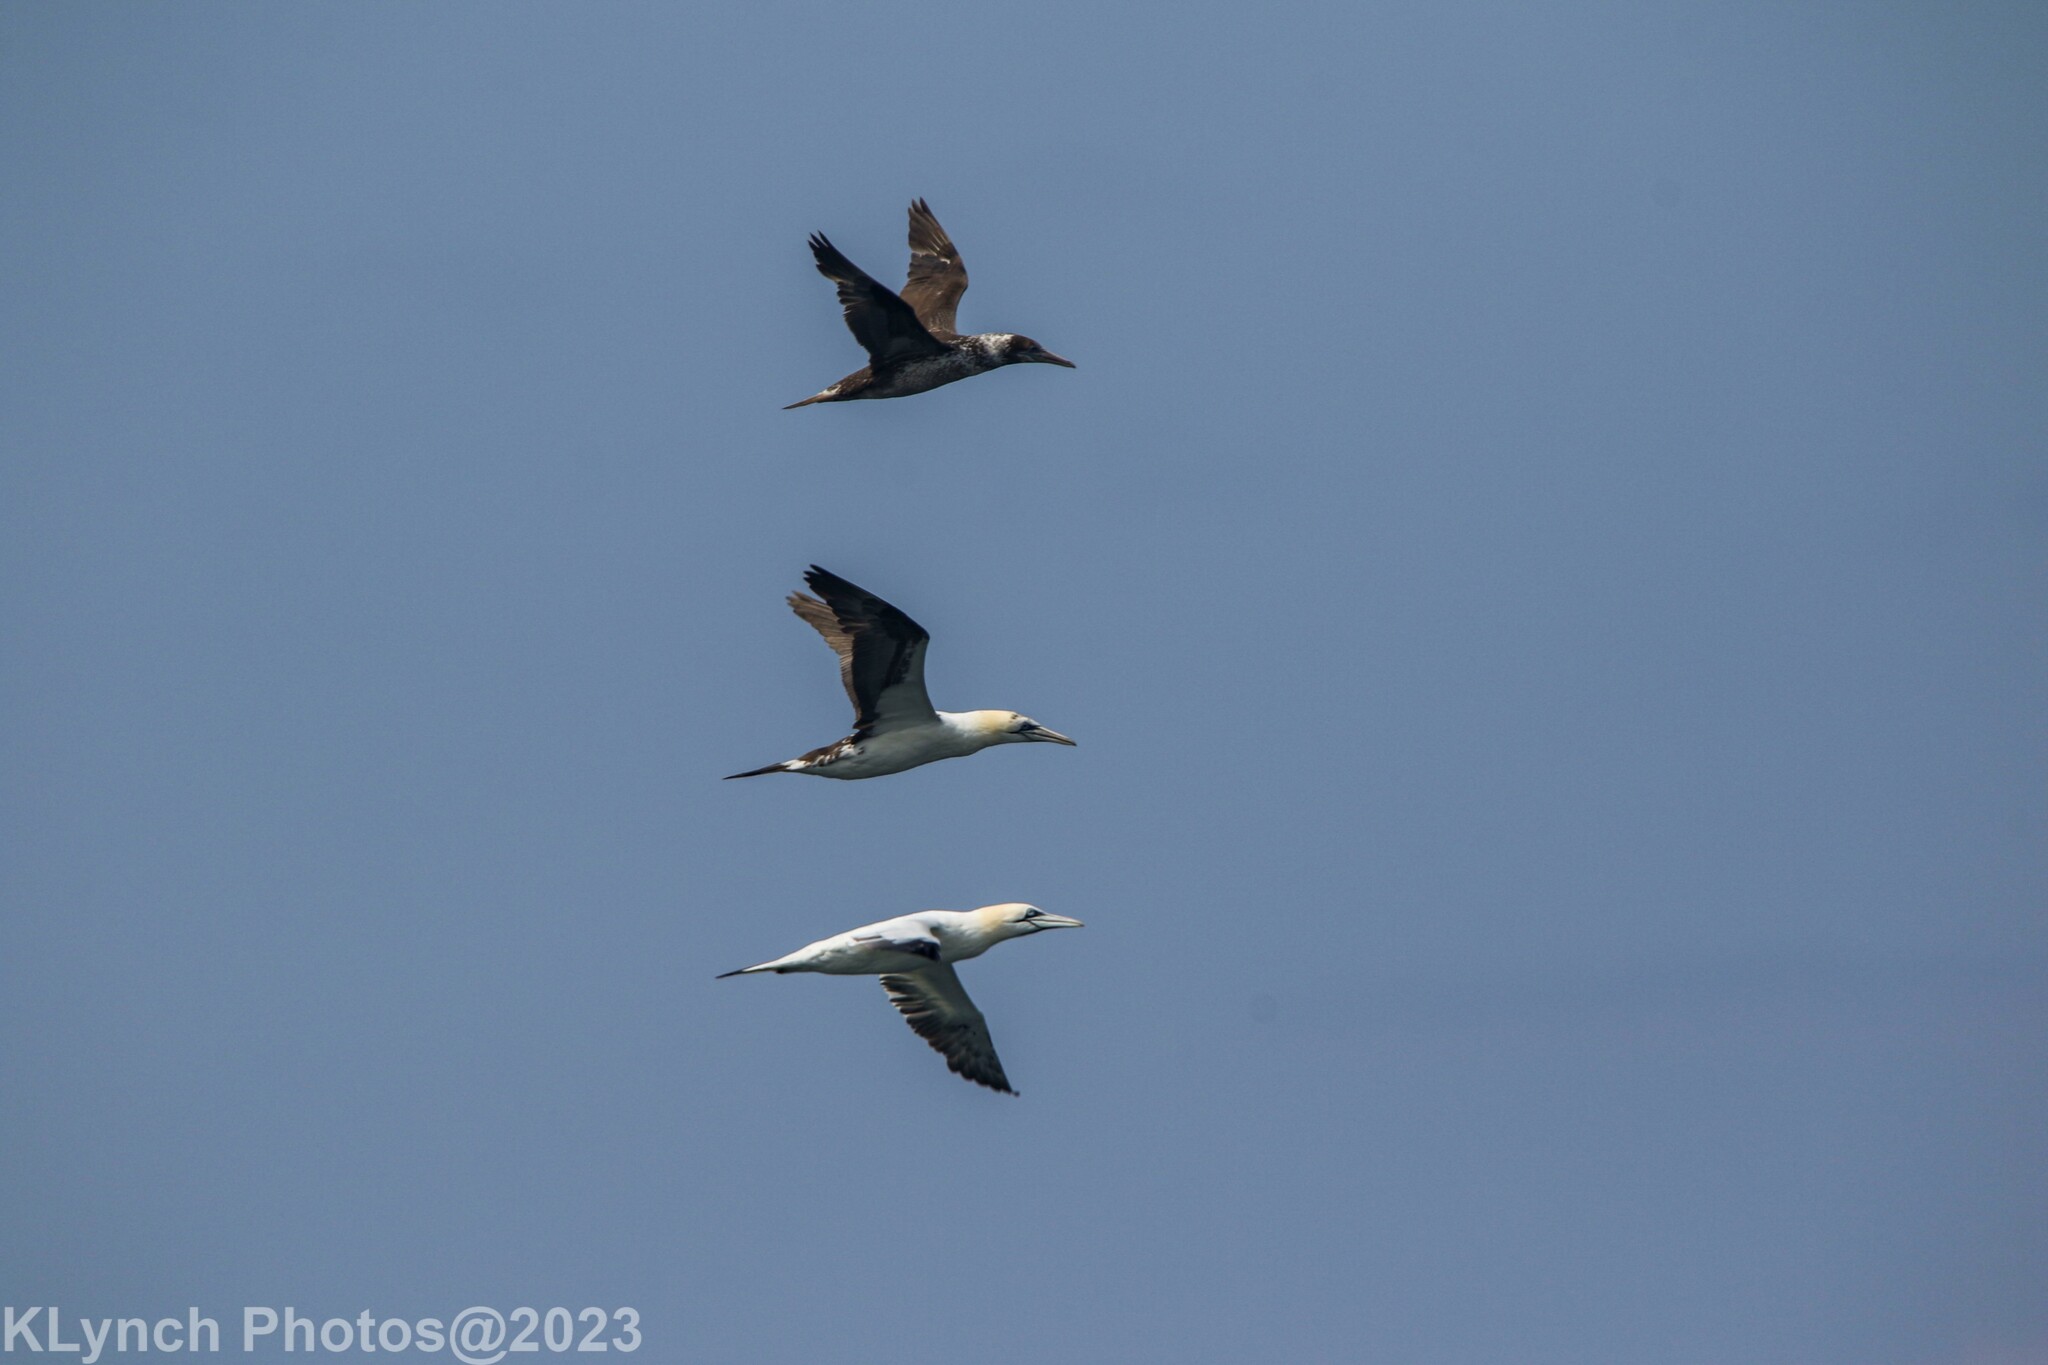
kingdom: Animalia
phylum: Chordata
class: Aves
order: Suliformes
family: Sulidae
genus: Morus
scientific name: Morus bassanus
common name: Northern gannet
